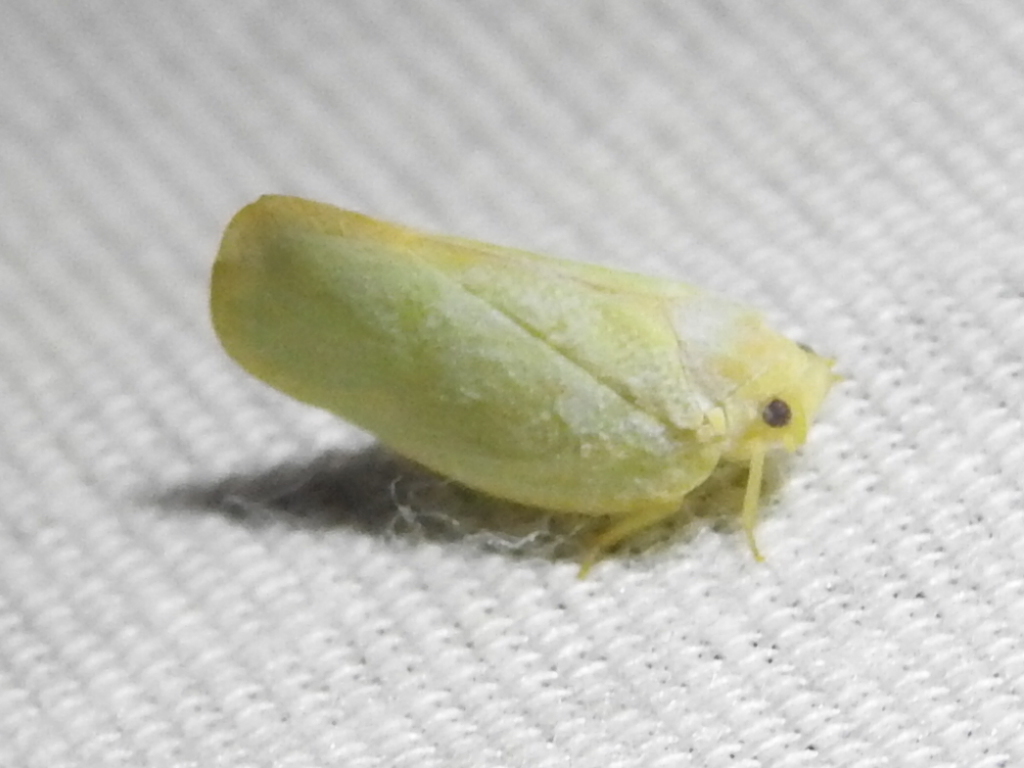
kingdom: Animalia
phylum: Arthropoda
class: Insecta
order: Hemiptera
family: Flatidae
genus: Ormenoides
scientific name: Ormenoides venusta
